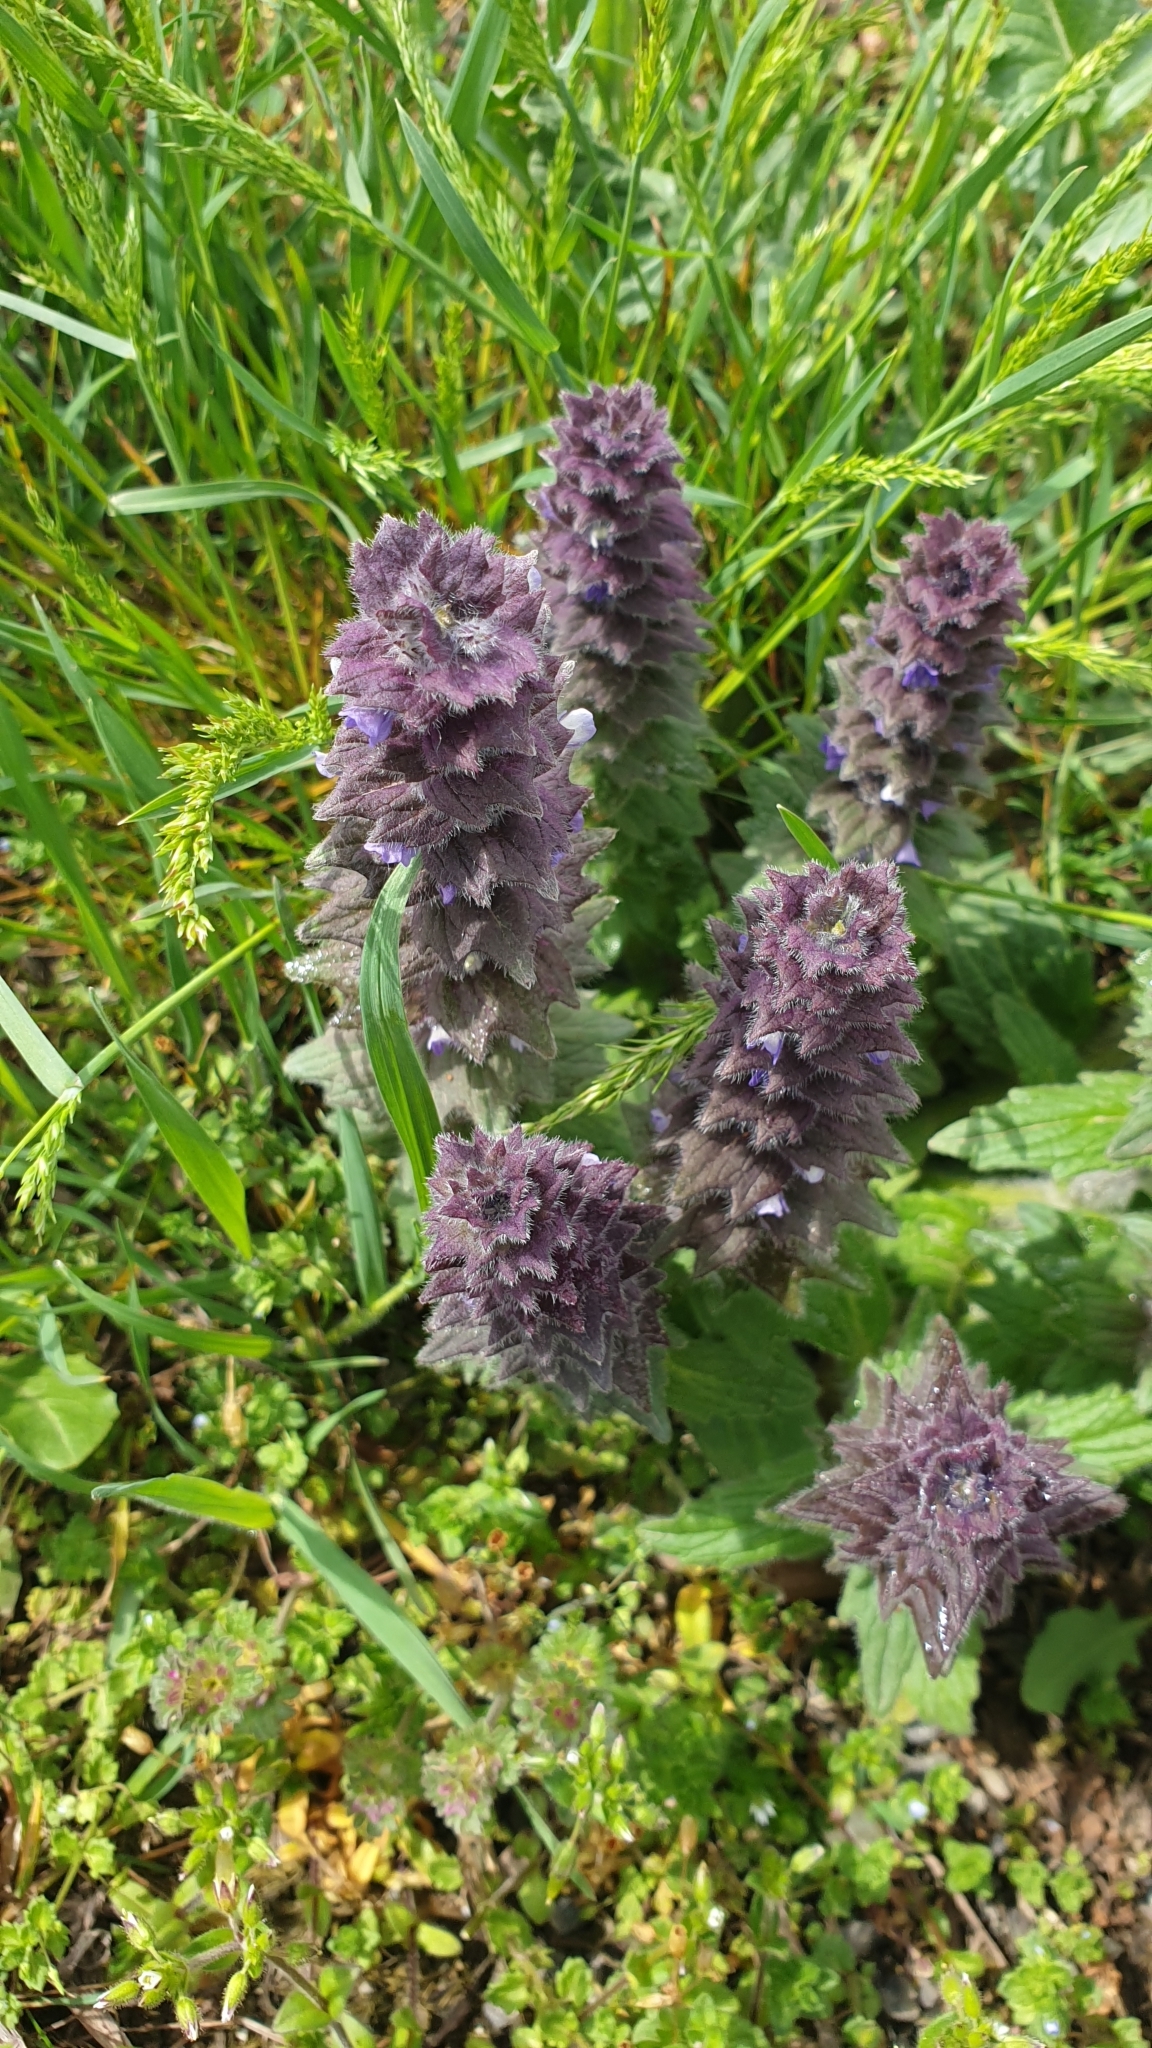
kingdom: Plantae
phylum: Tracheophyta
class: Magnoliopsida
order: Lamiales
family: Lamiaceae
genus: Ajuga
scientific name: Ajuga orientalis
